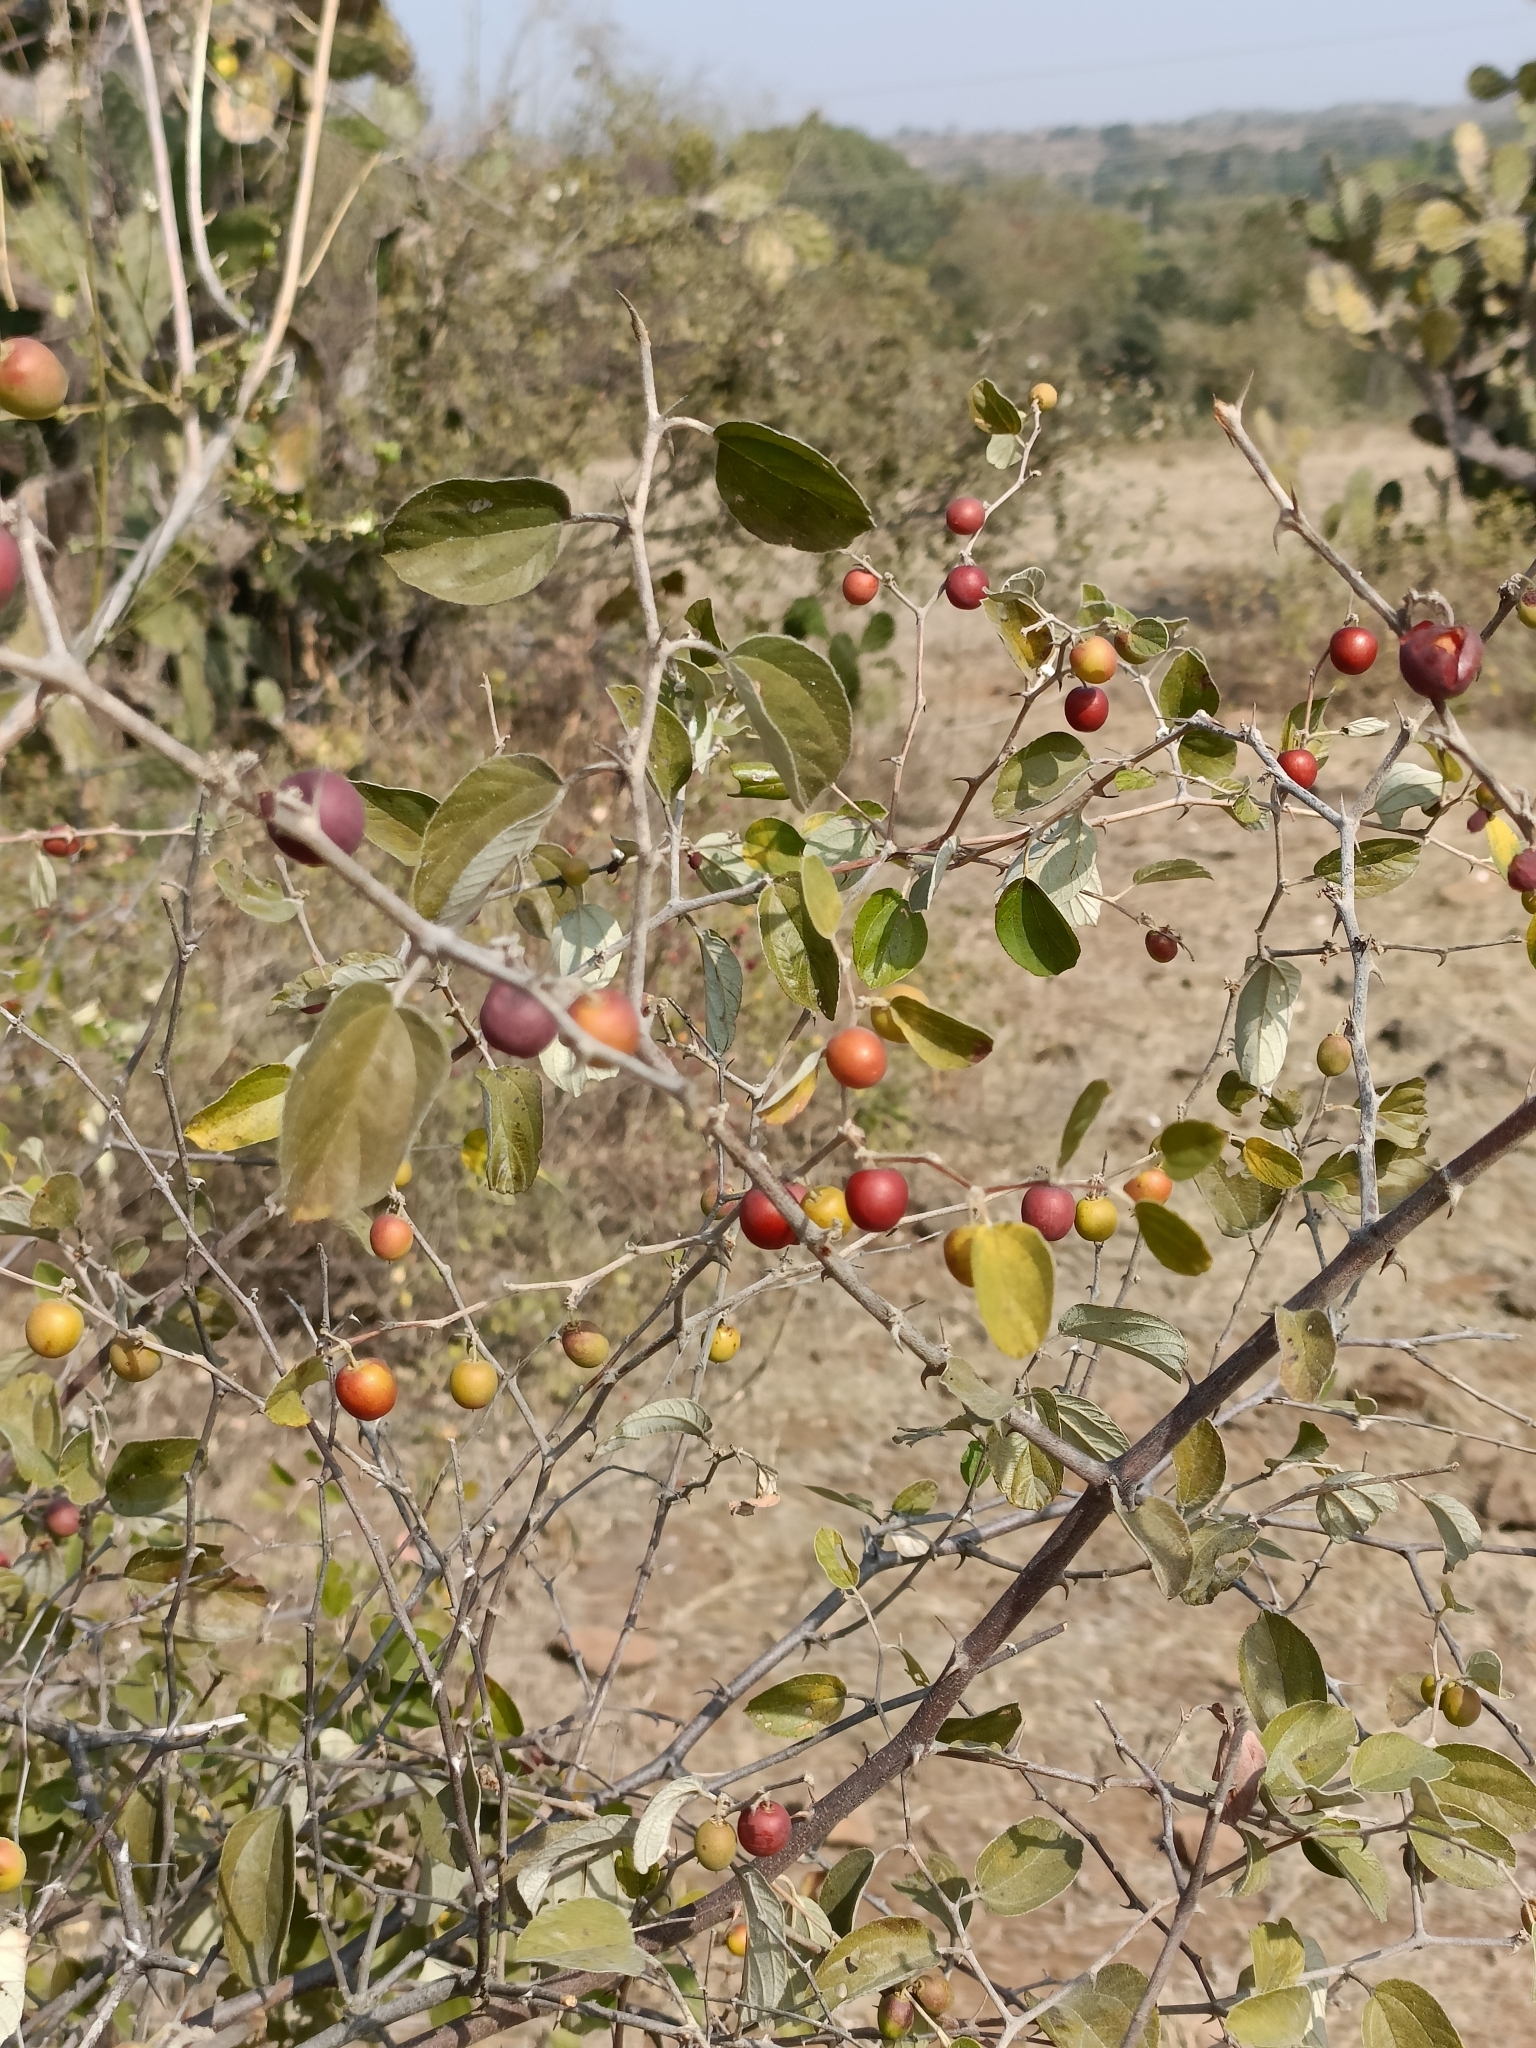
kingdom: Plantae
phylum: Tracheophyta
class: Magnoliopsida
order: Rosales
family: Rhamnaceae
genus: Ziziphus
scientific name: Ziziphus nummularia
